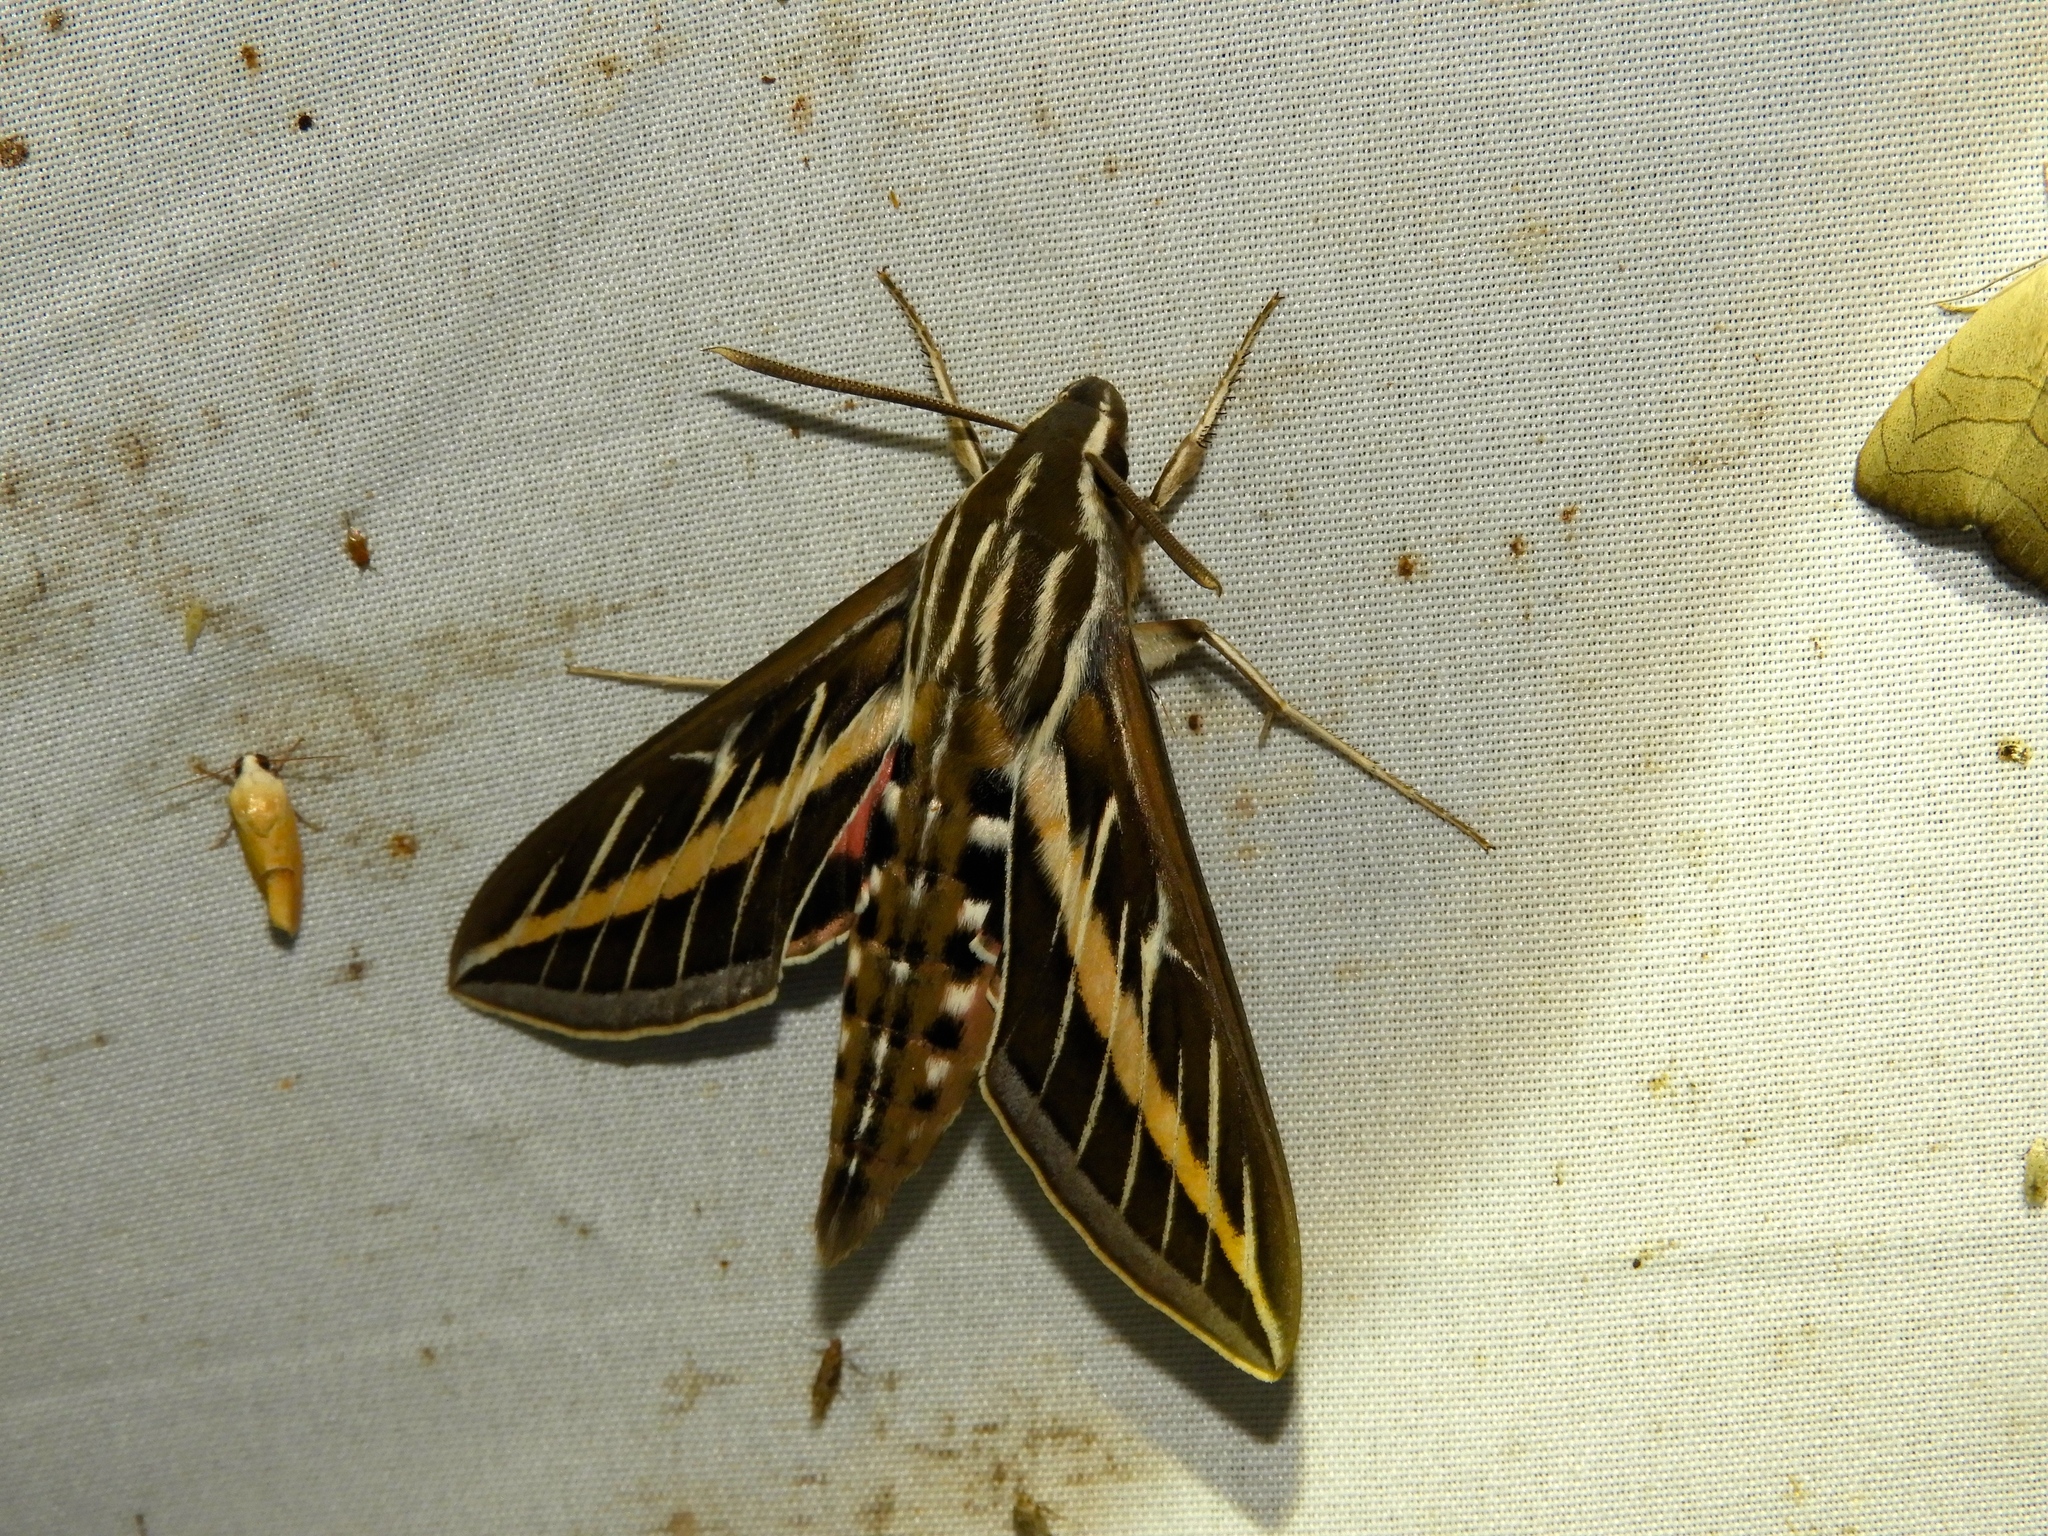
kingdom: Animalia
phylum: Arthropoda
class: Insecta
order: Lepidoptera
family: Sphingidae
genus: Hyles
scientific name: Hyles lineata
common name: White-lined sphinx
